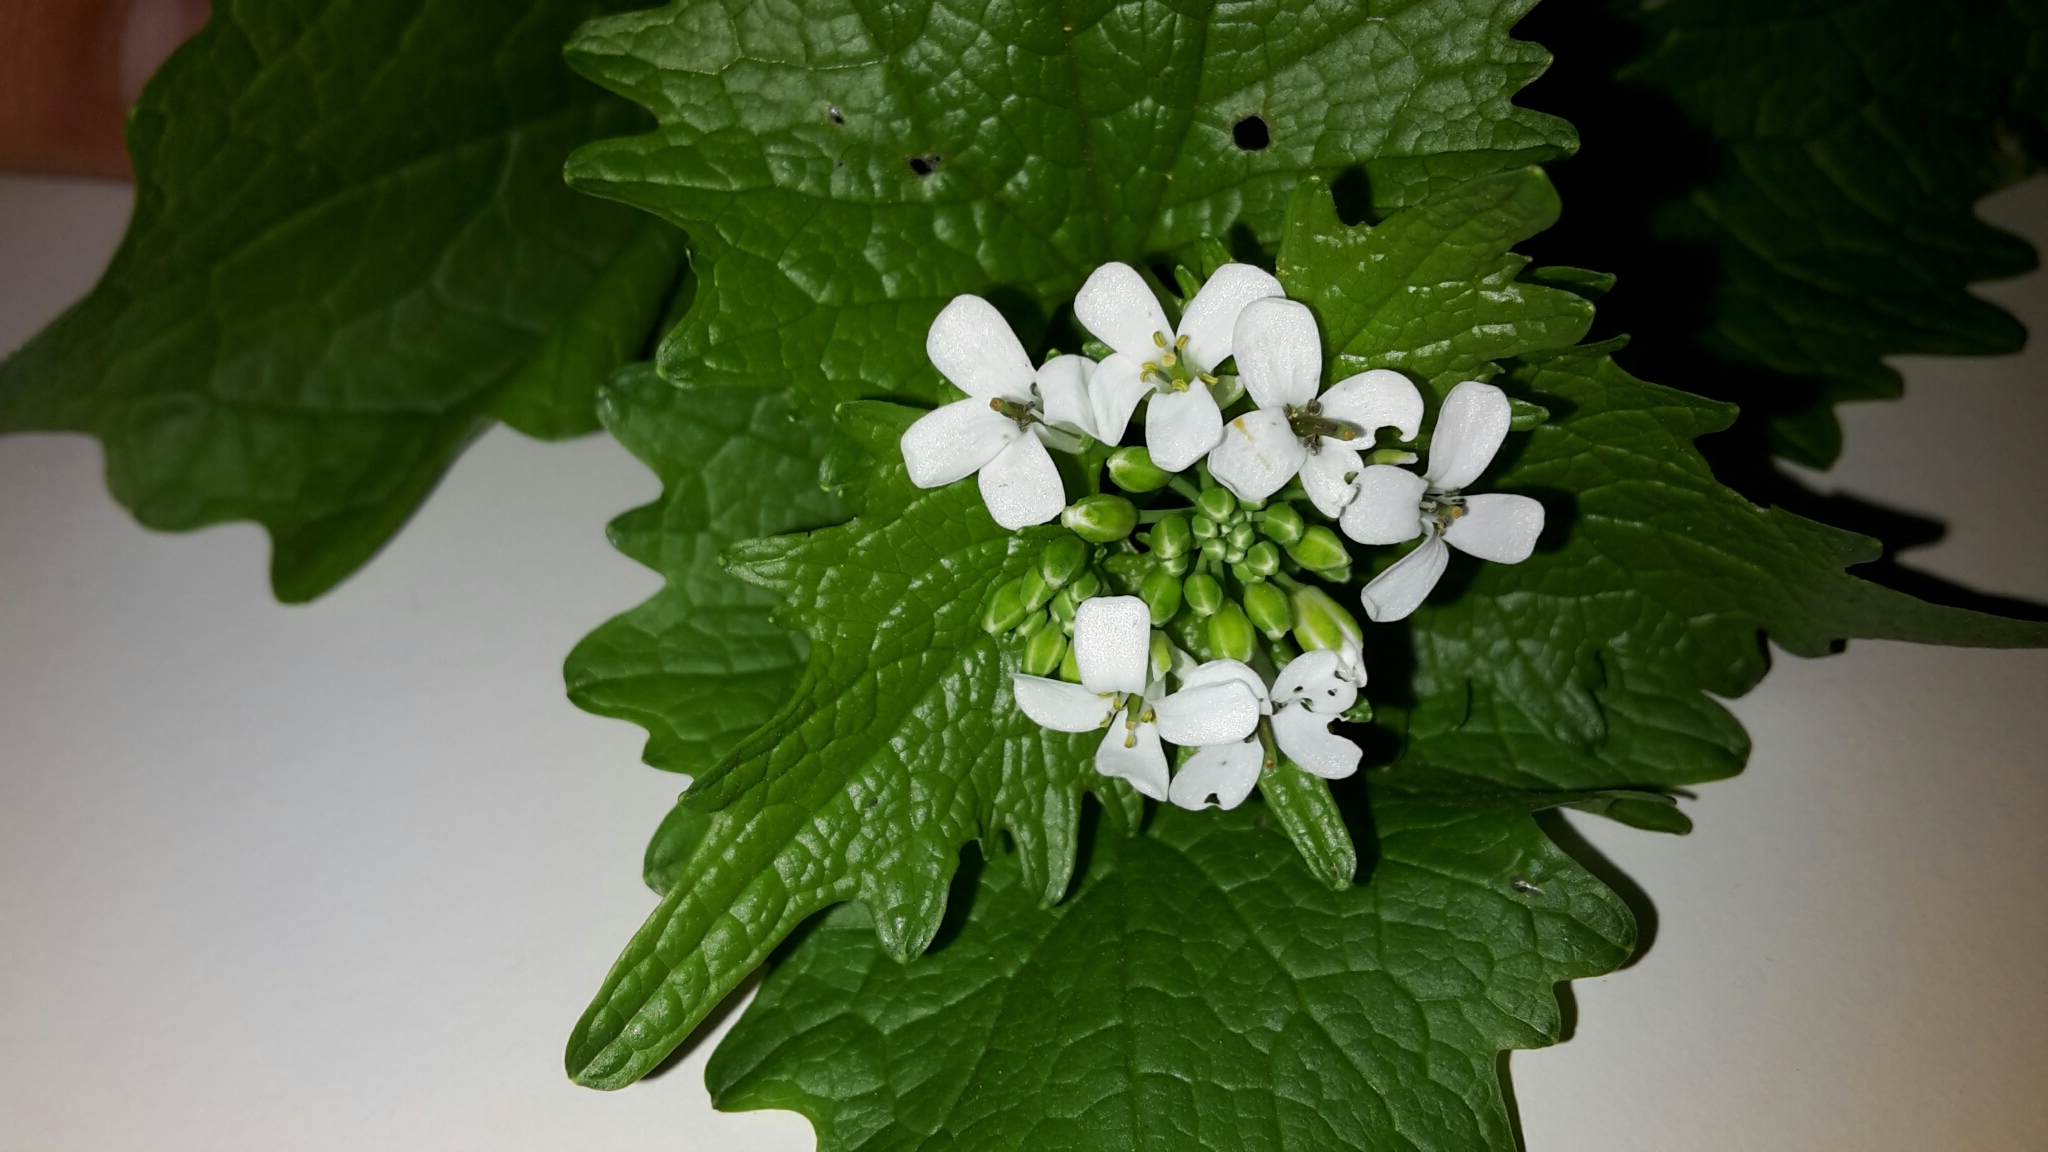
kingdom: Plantae
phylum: Tracheophyta
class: Magnoliopsida
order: Brassicales
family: Brassicaceae
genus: Alliaria
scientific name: Alliaria petiolata
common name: Garlic mustard
